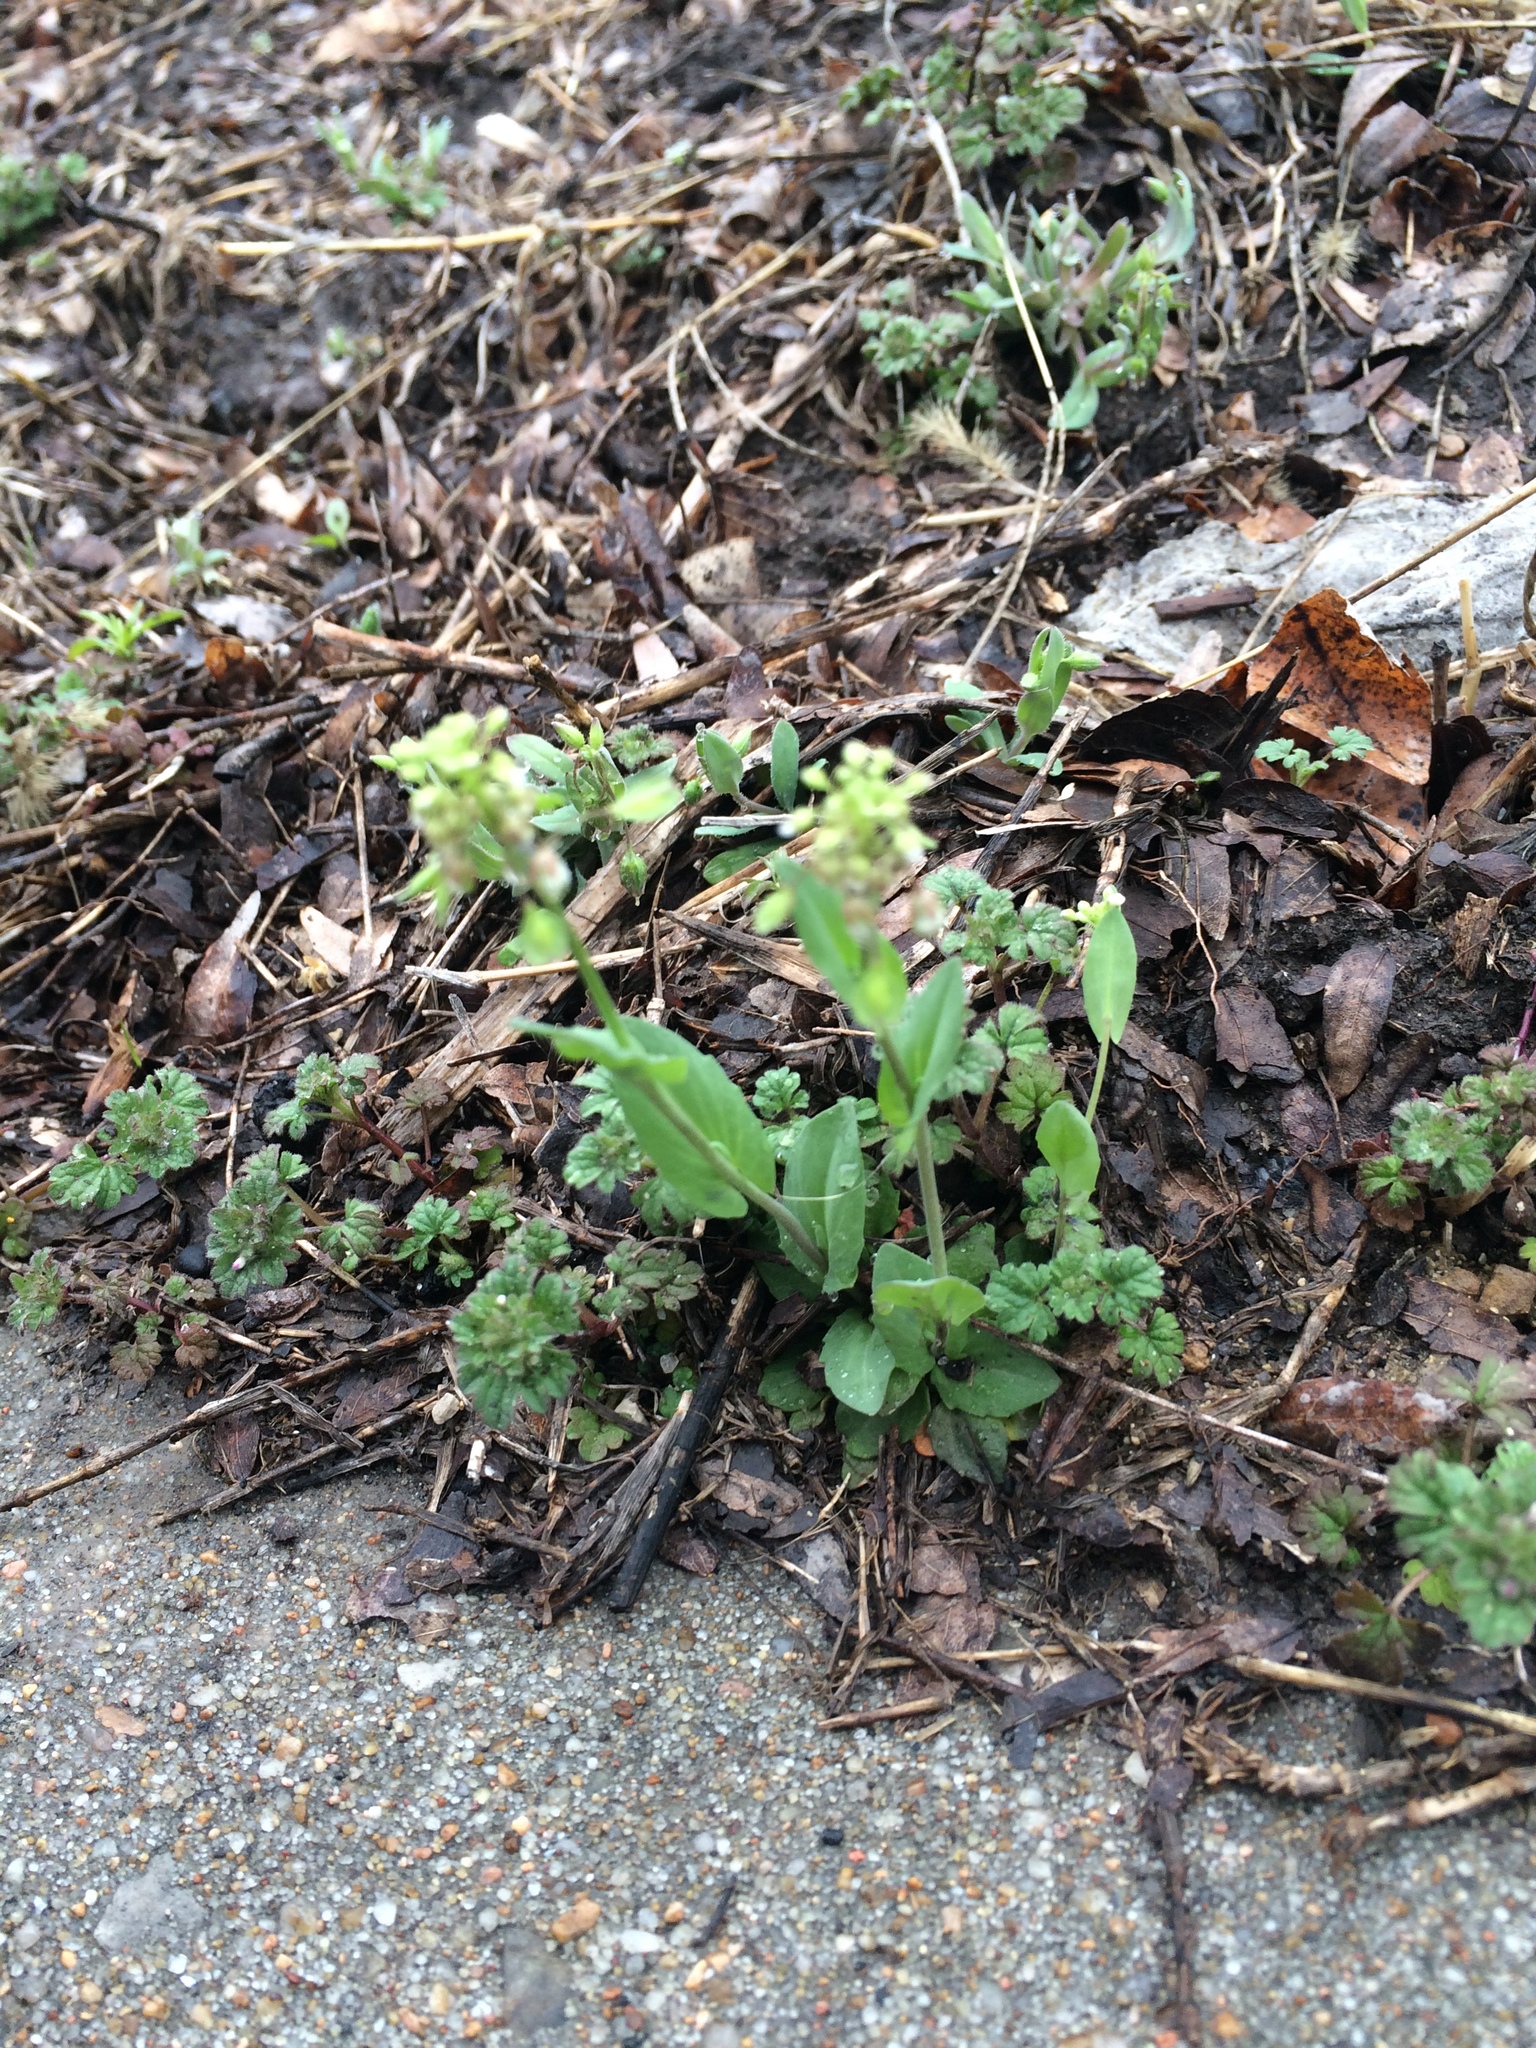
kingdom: Plantae
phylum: Tracheophyta
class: Magnoliopsida
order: Brassicales
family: Brassicaceae
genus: Noccaea
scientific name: Noccaea perfoliata
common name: Perfoliate pennycress
